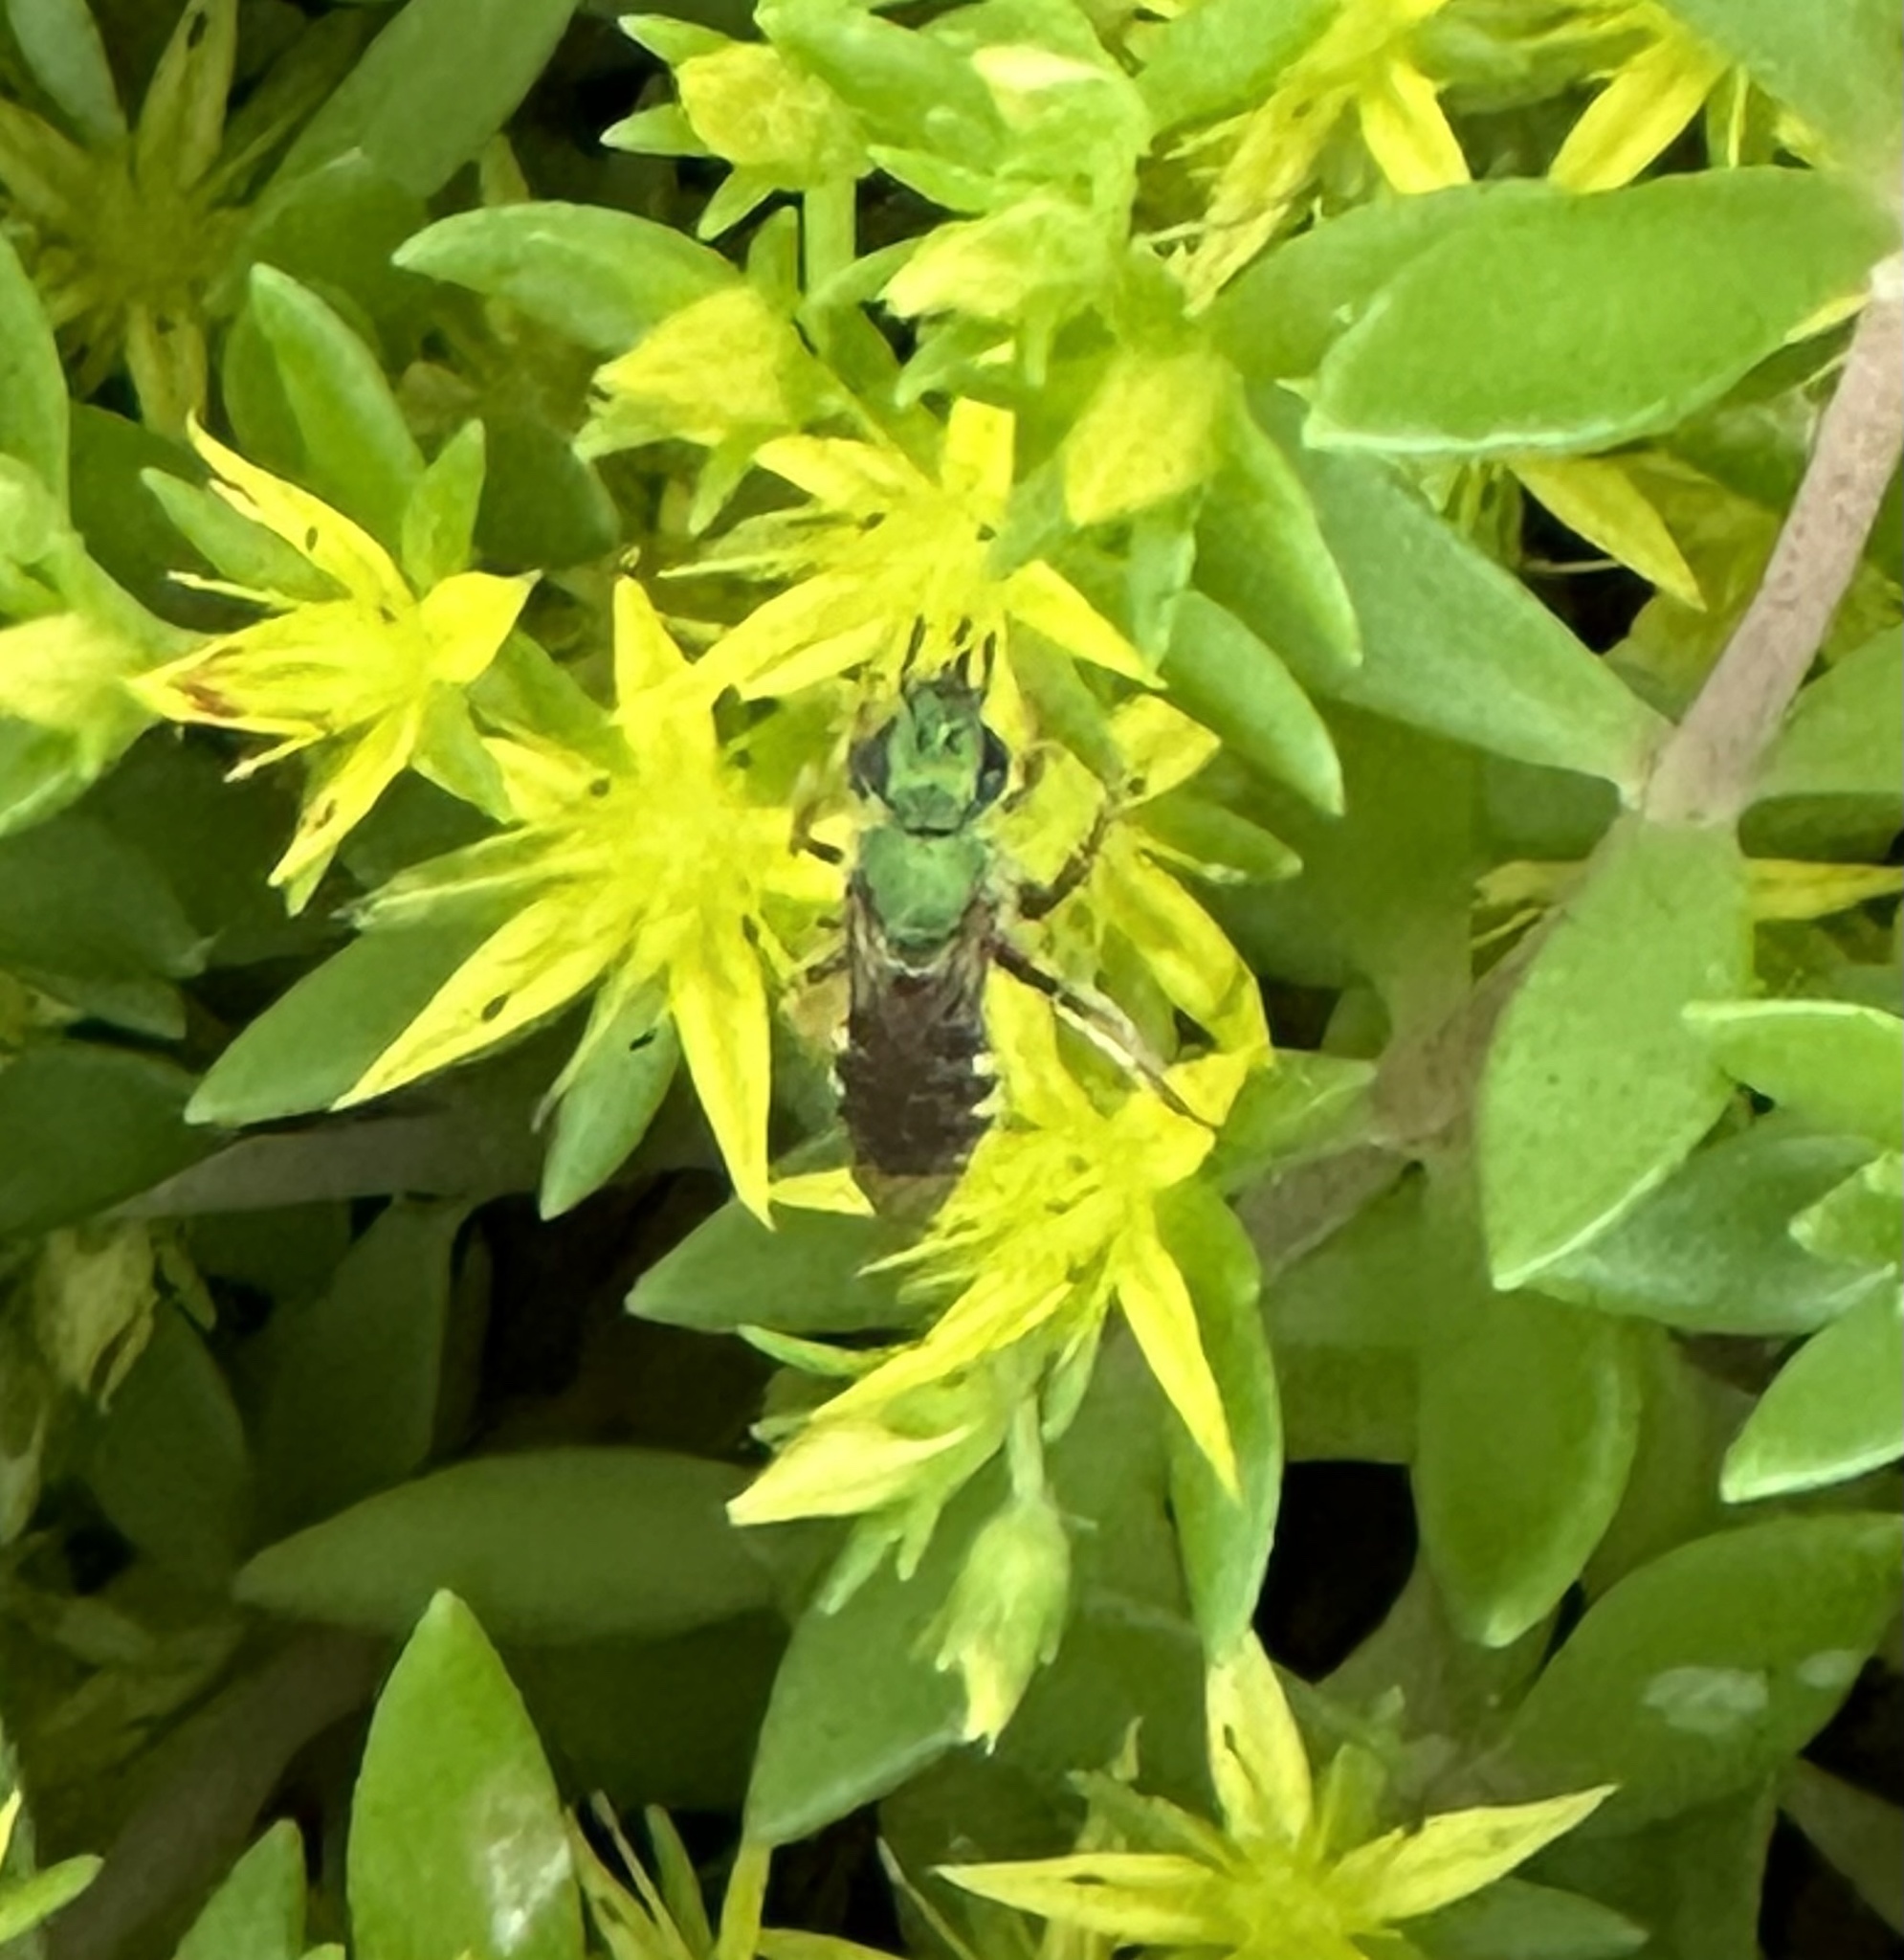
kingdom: Animalia
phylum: Arthropoda
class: Insecta
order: Hymenoptera
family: Halictidae
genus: Agapostemon
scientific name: Agapostemon virescens
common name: Bicolored striped sweat bee
